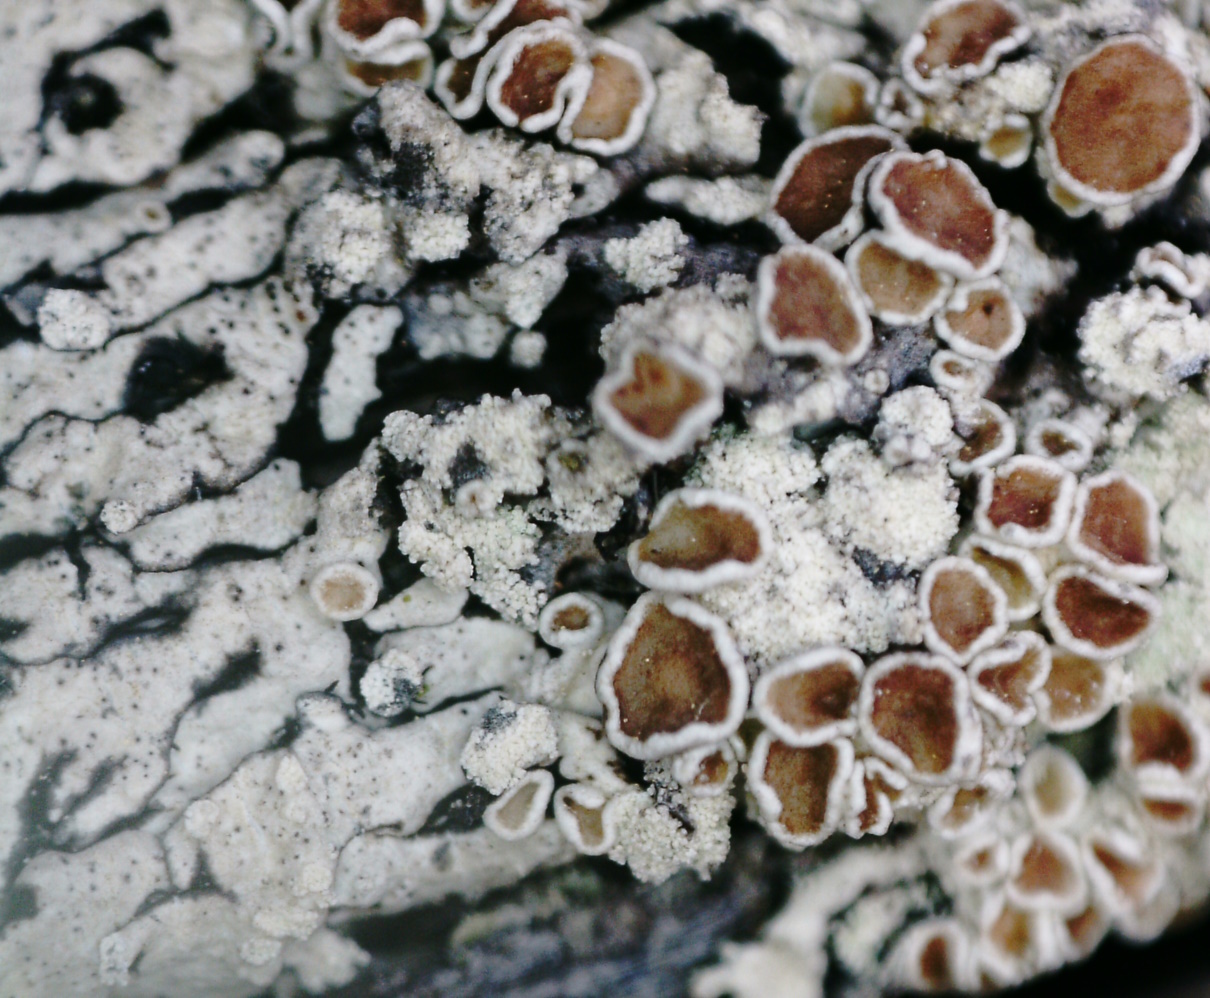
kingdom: Fungi
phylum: Ascomycota
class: Lecanoromycetes
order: Lecanorales
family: Parmeliaceae
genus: Parmeliopsis
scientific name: Parmeliopsis ambigua
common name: Green starburst lichen
